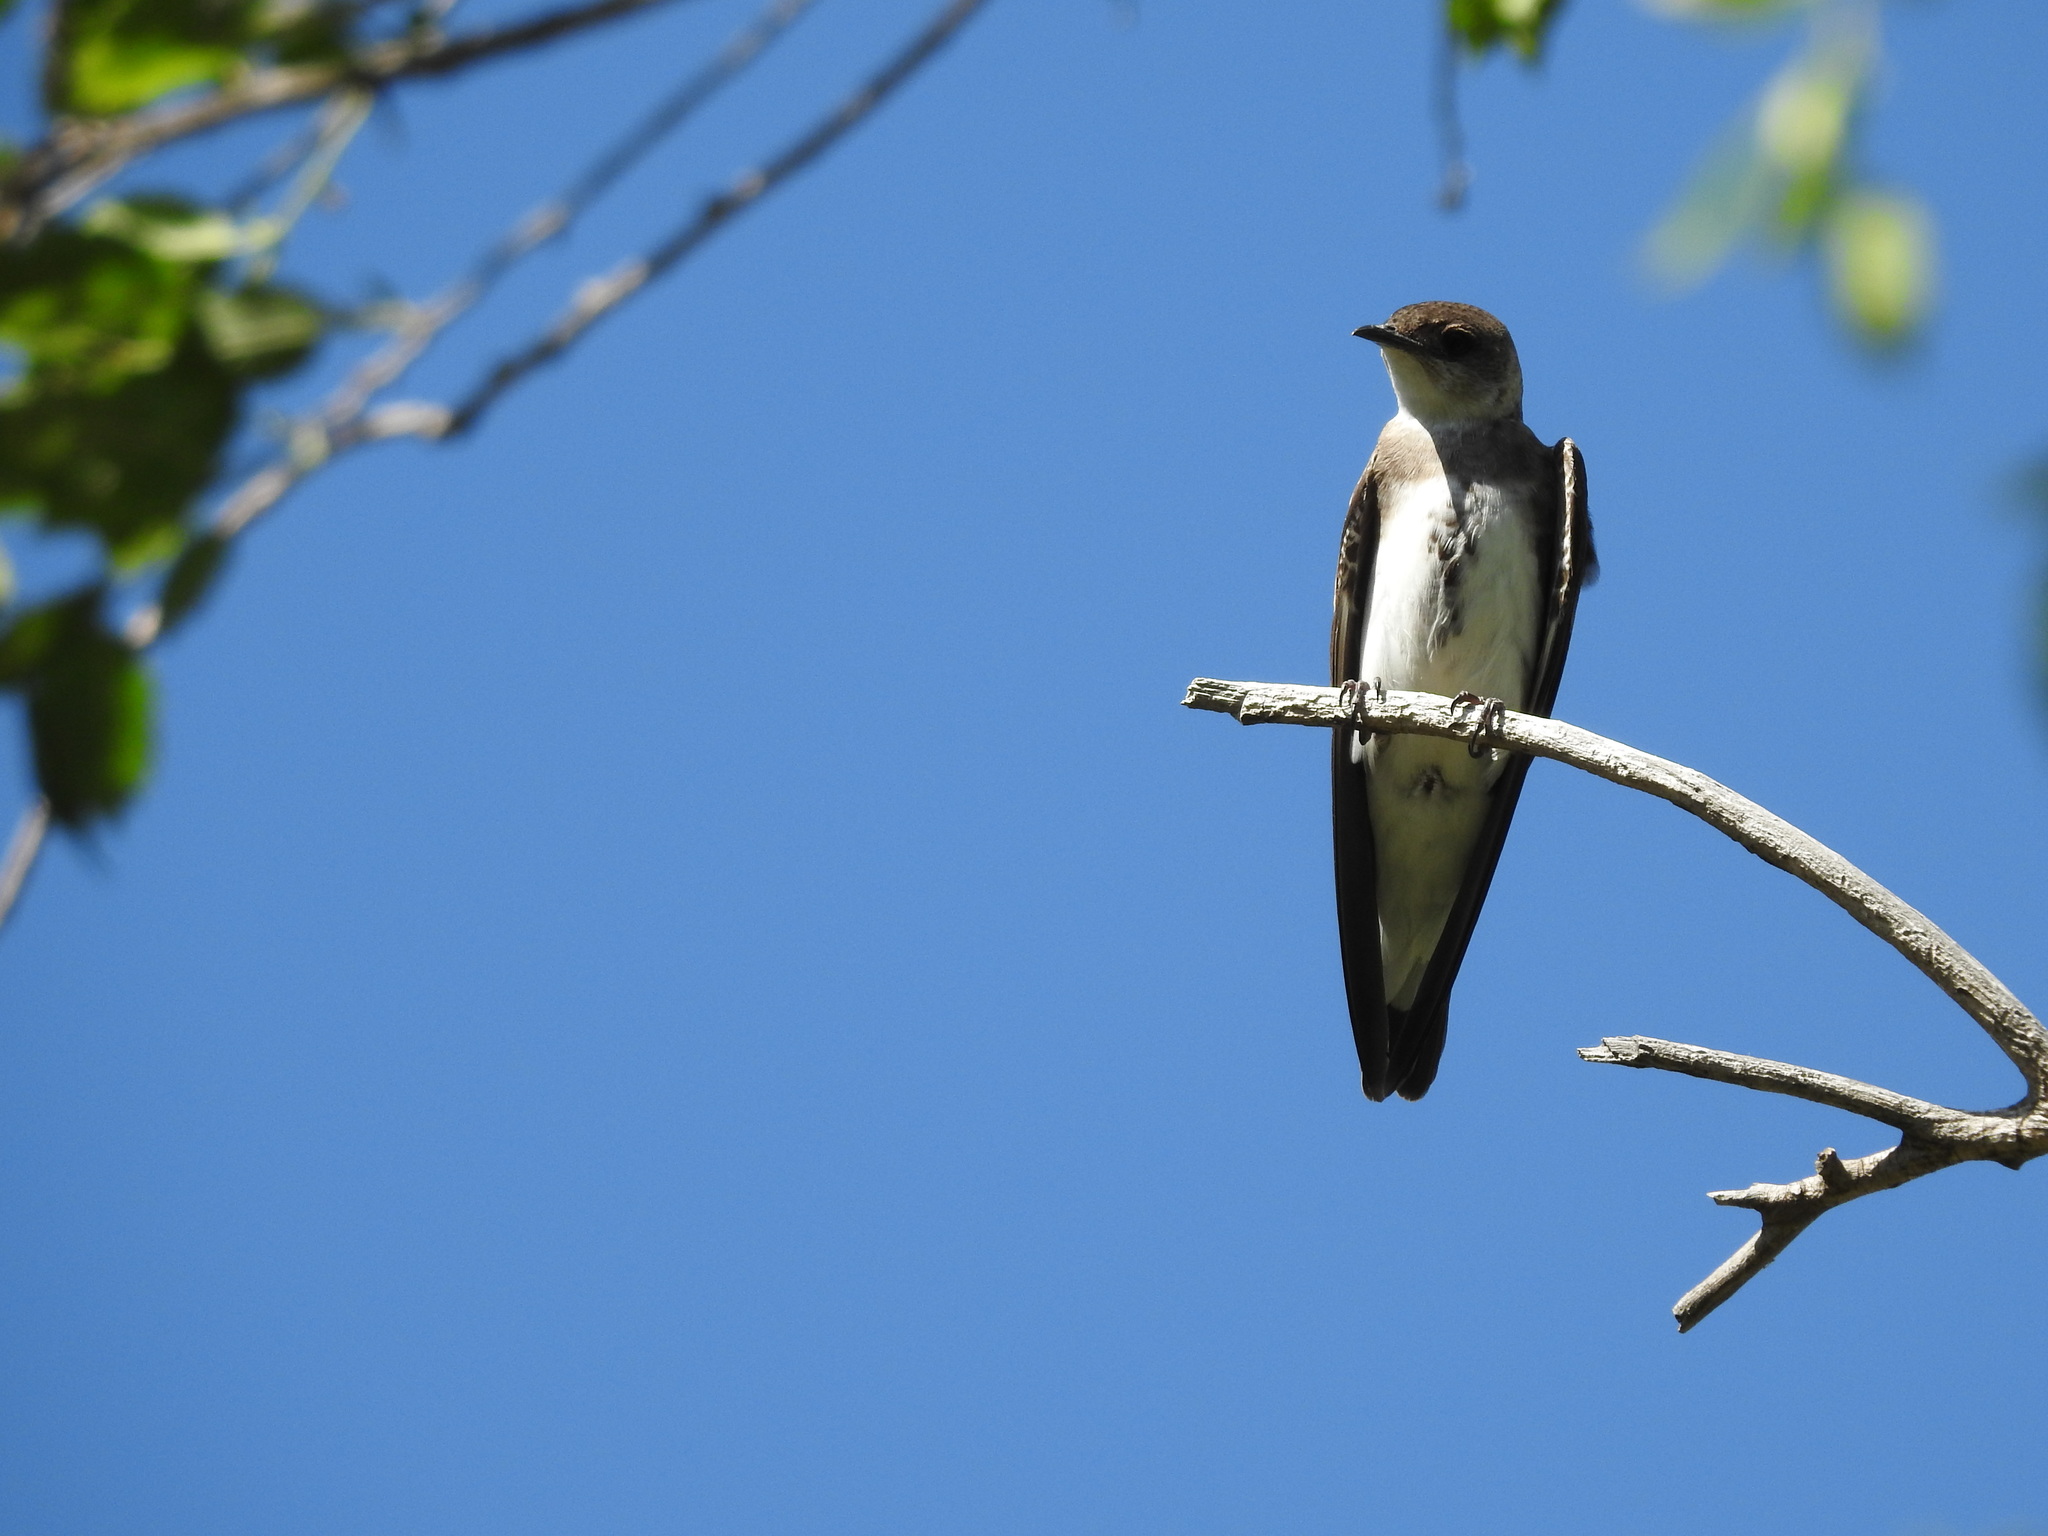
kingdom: Animalia
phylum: Chordata
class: Aves
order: Passeriformes
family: Hirundinidae
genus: Progne
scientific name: Progne tapera
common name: Brown-chested martin
